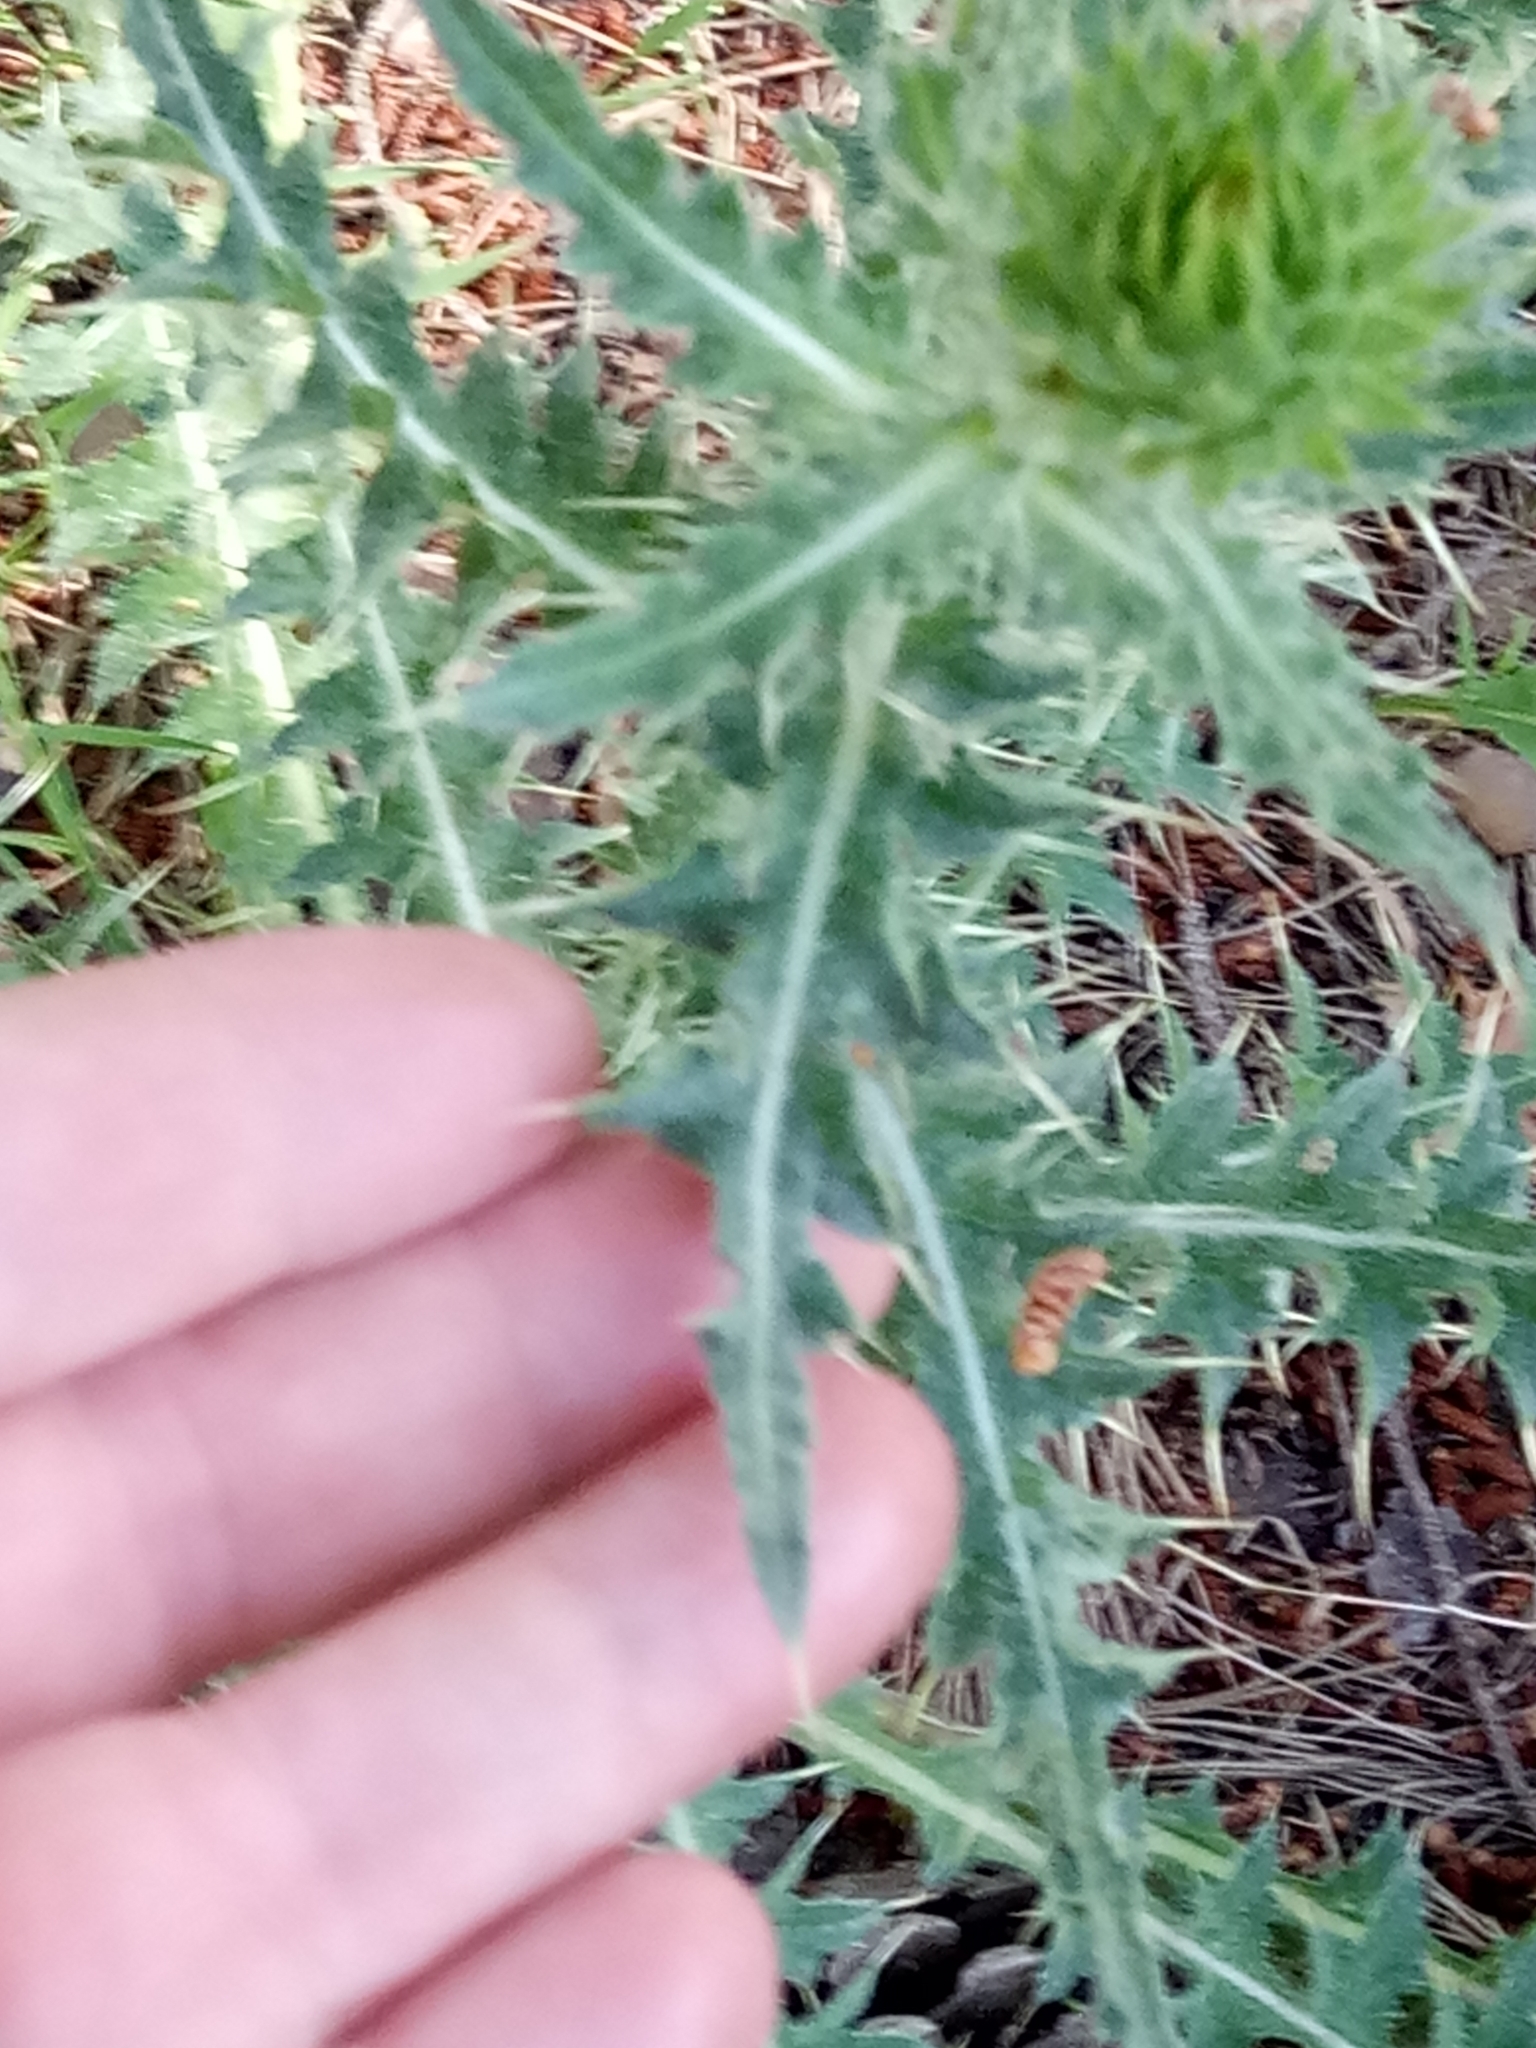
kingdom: Plantae
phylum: Tracheophyta
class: Magnoliopsida
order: Asterales
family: Asteraceae
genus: Carduus
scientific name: Carduus macrocephalus
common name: Giant thistle
